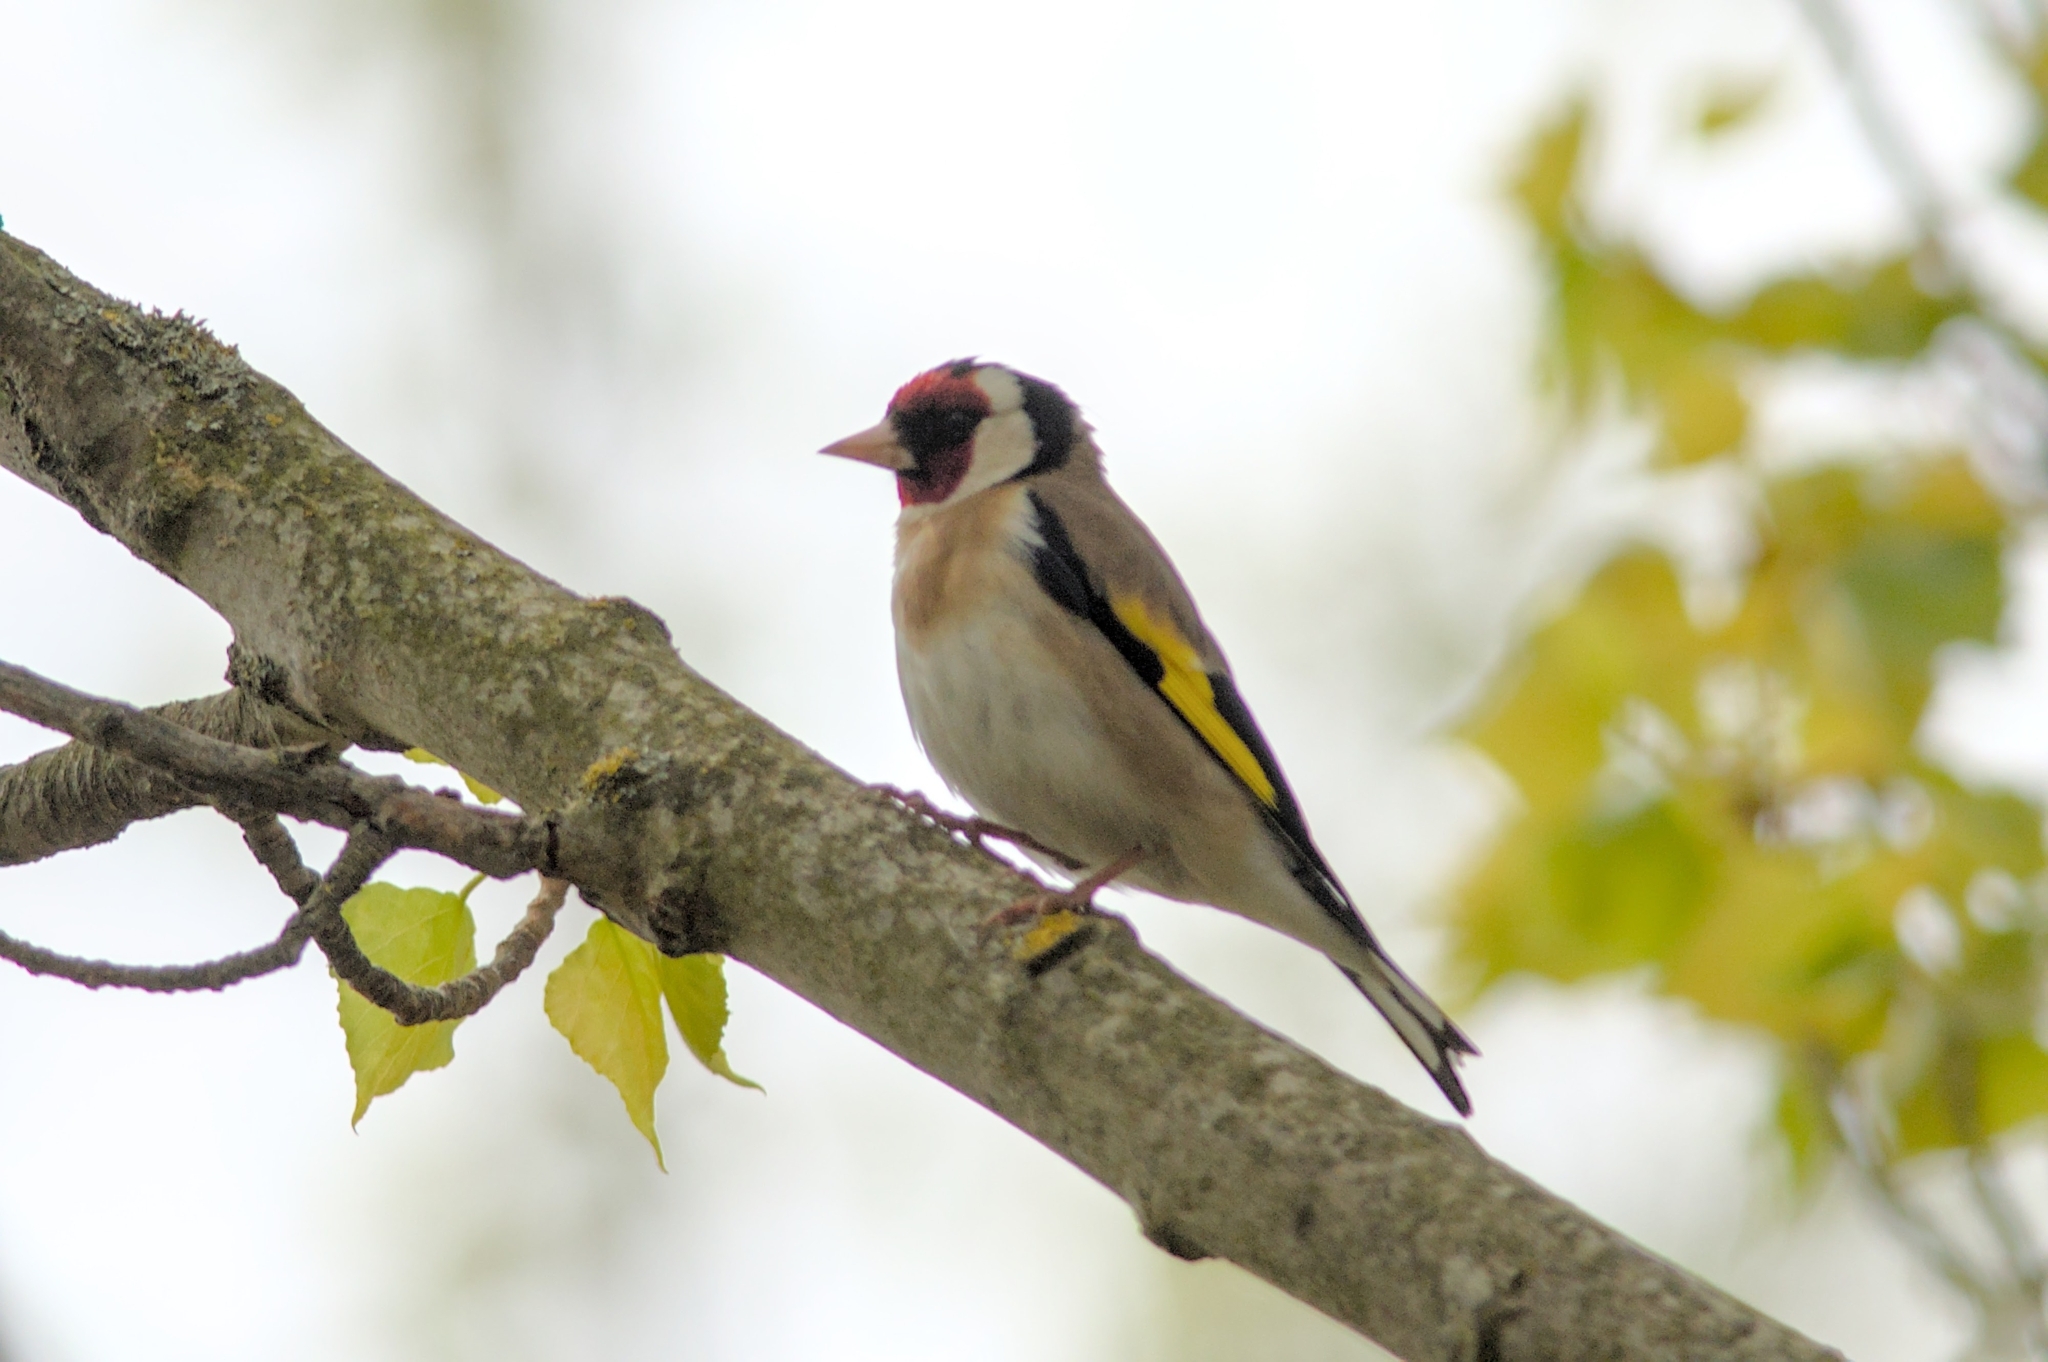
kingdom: Animalia
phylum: Chordata
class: Aves
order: Passeriformes
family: Fringillidae
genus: Carduelis
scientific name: Carduelis carduelis
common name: European goldfinch
